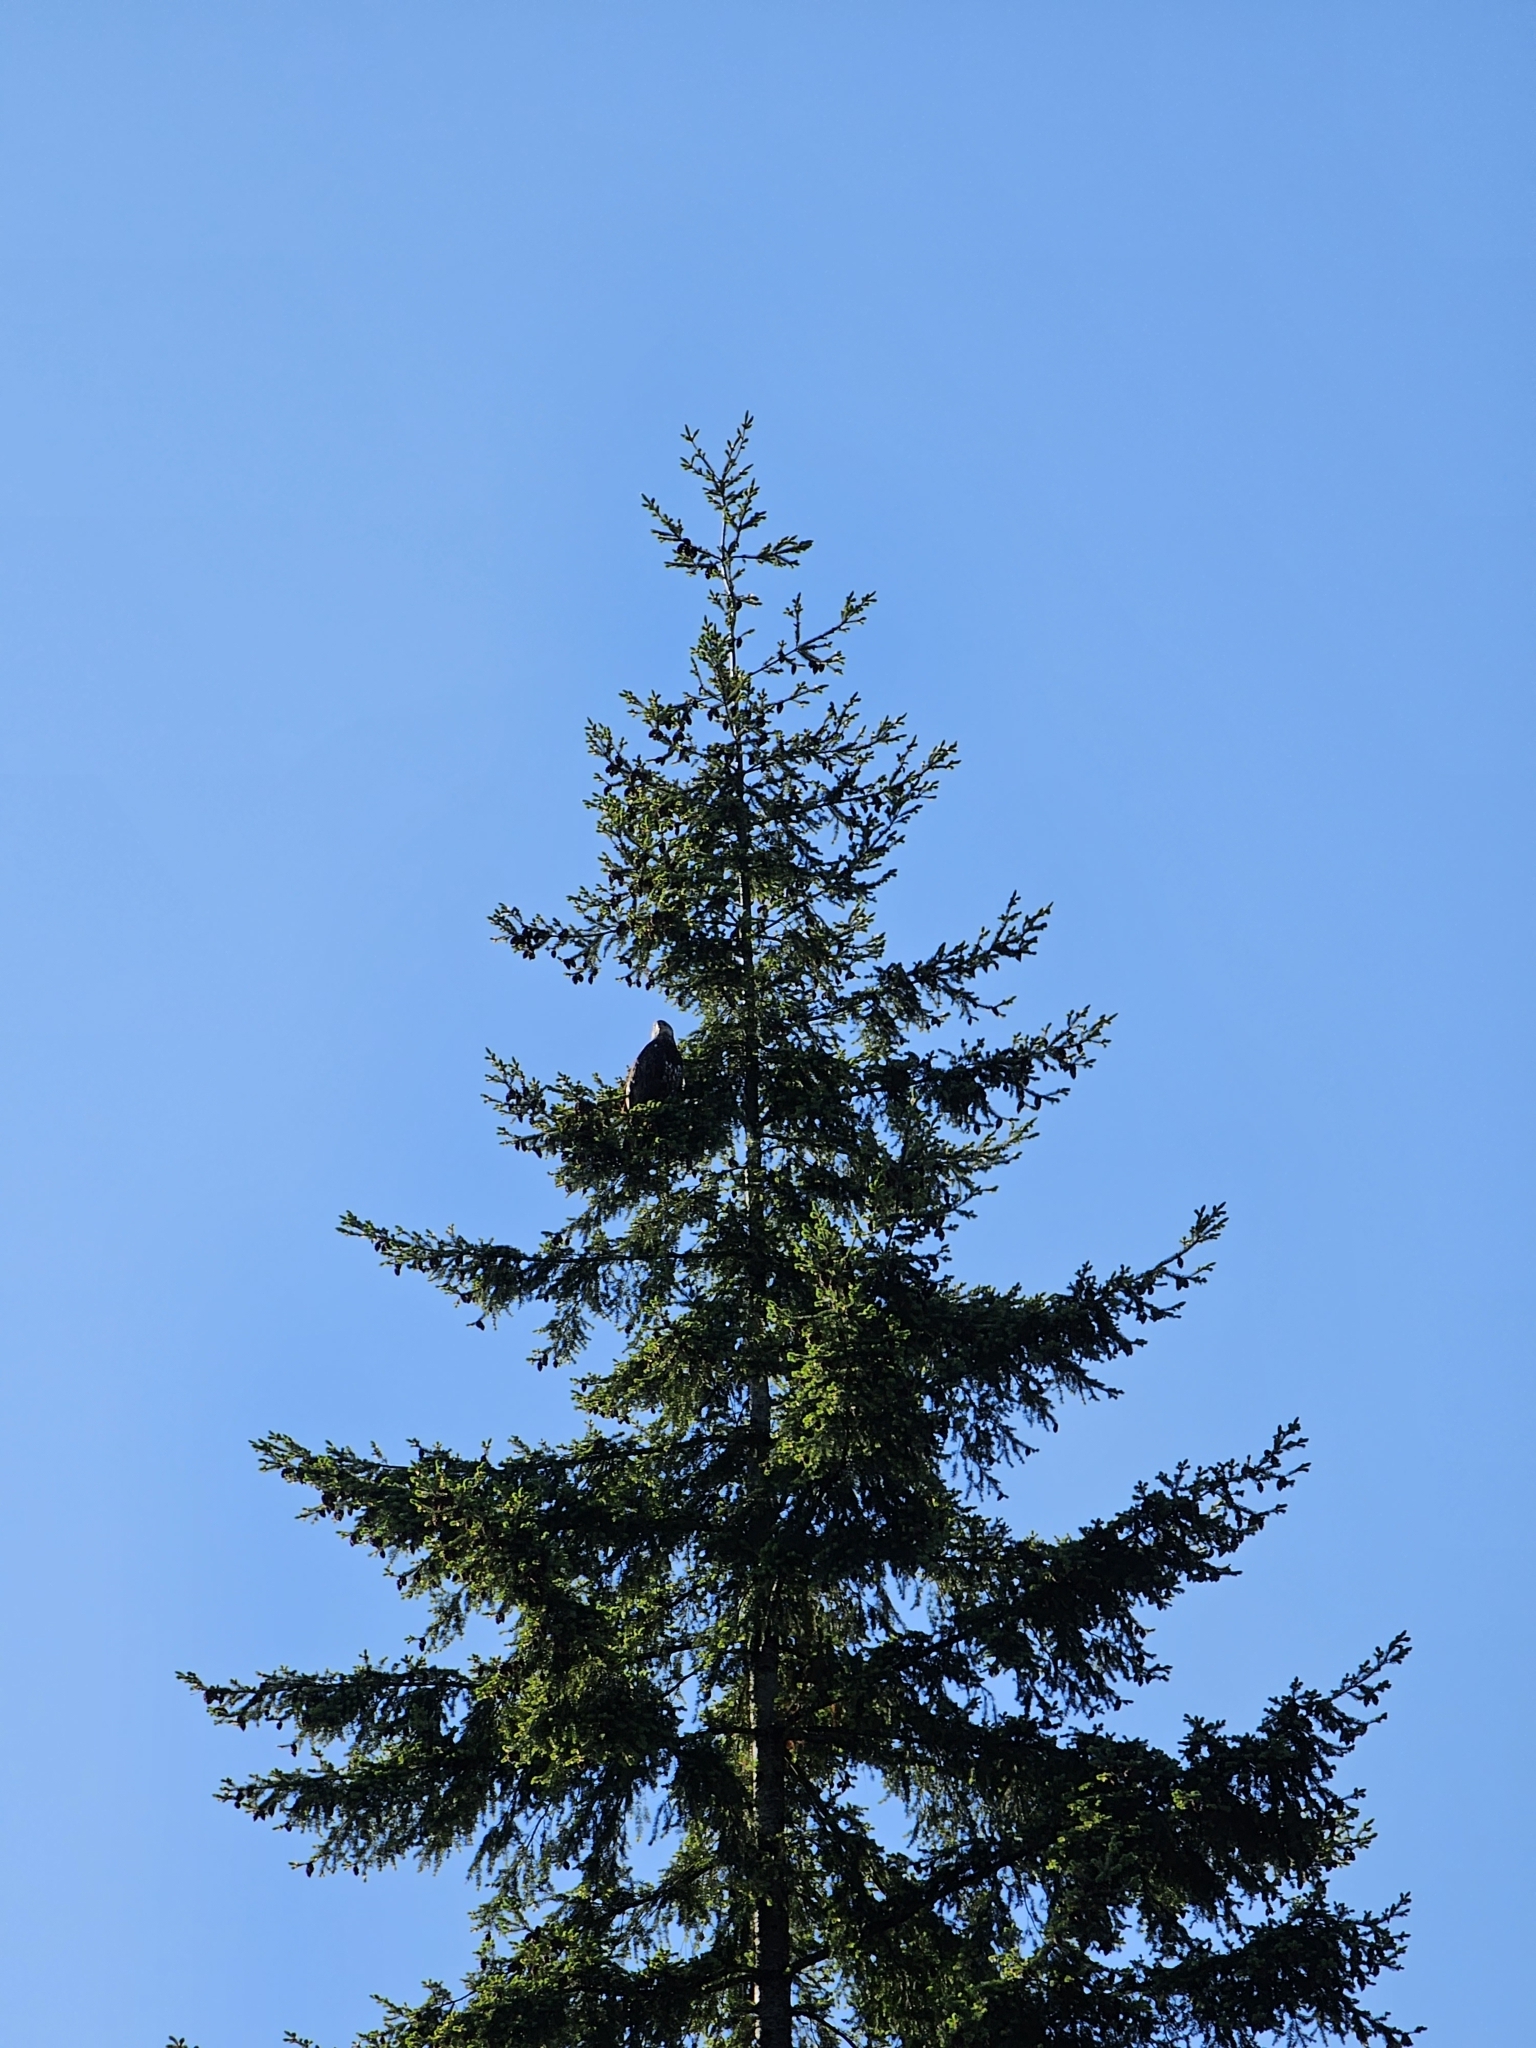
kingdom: Animalia
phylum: Chordata
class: Aves
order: Accipitriformes
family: Accipitridae
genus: Haliaeetus
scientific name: Haliaeetus leucocephalus
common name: Bald eagle
